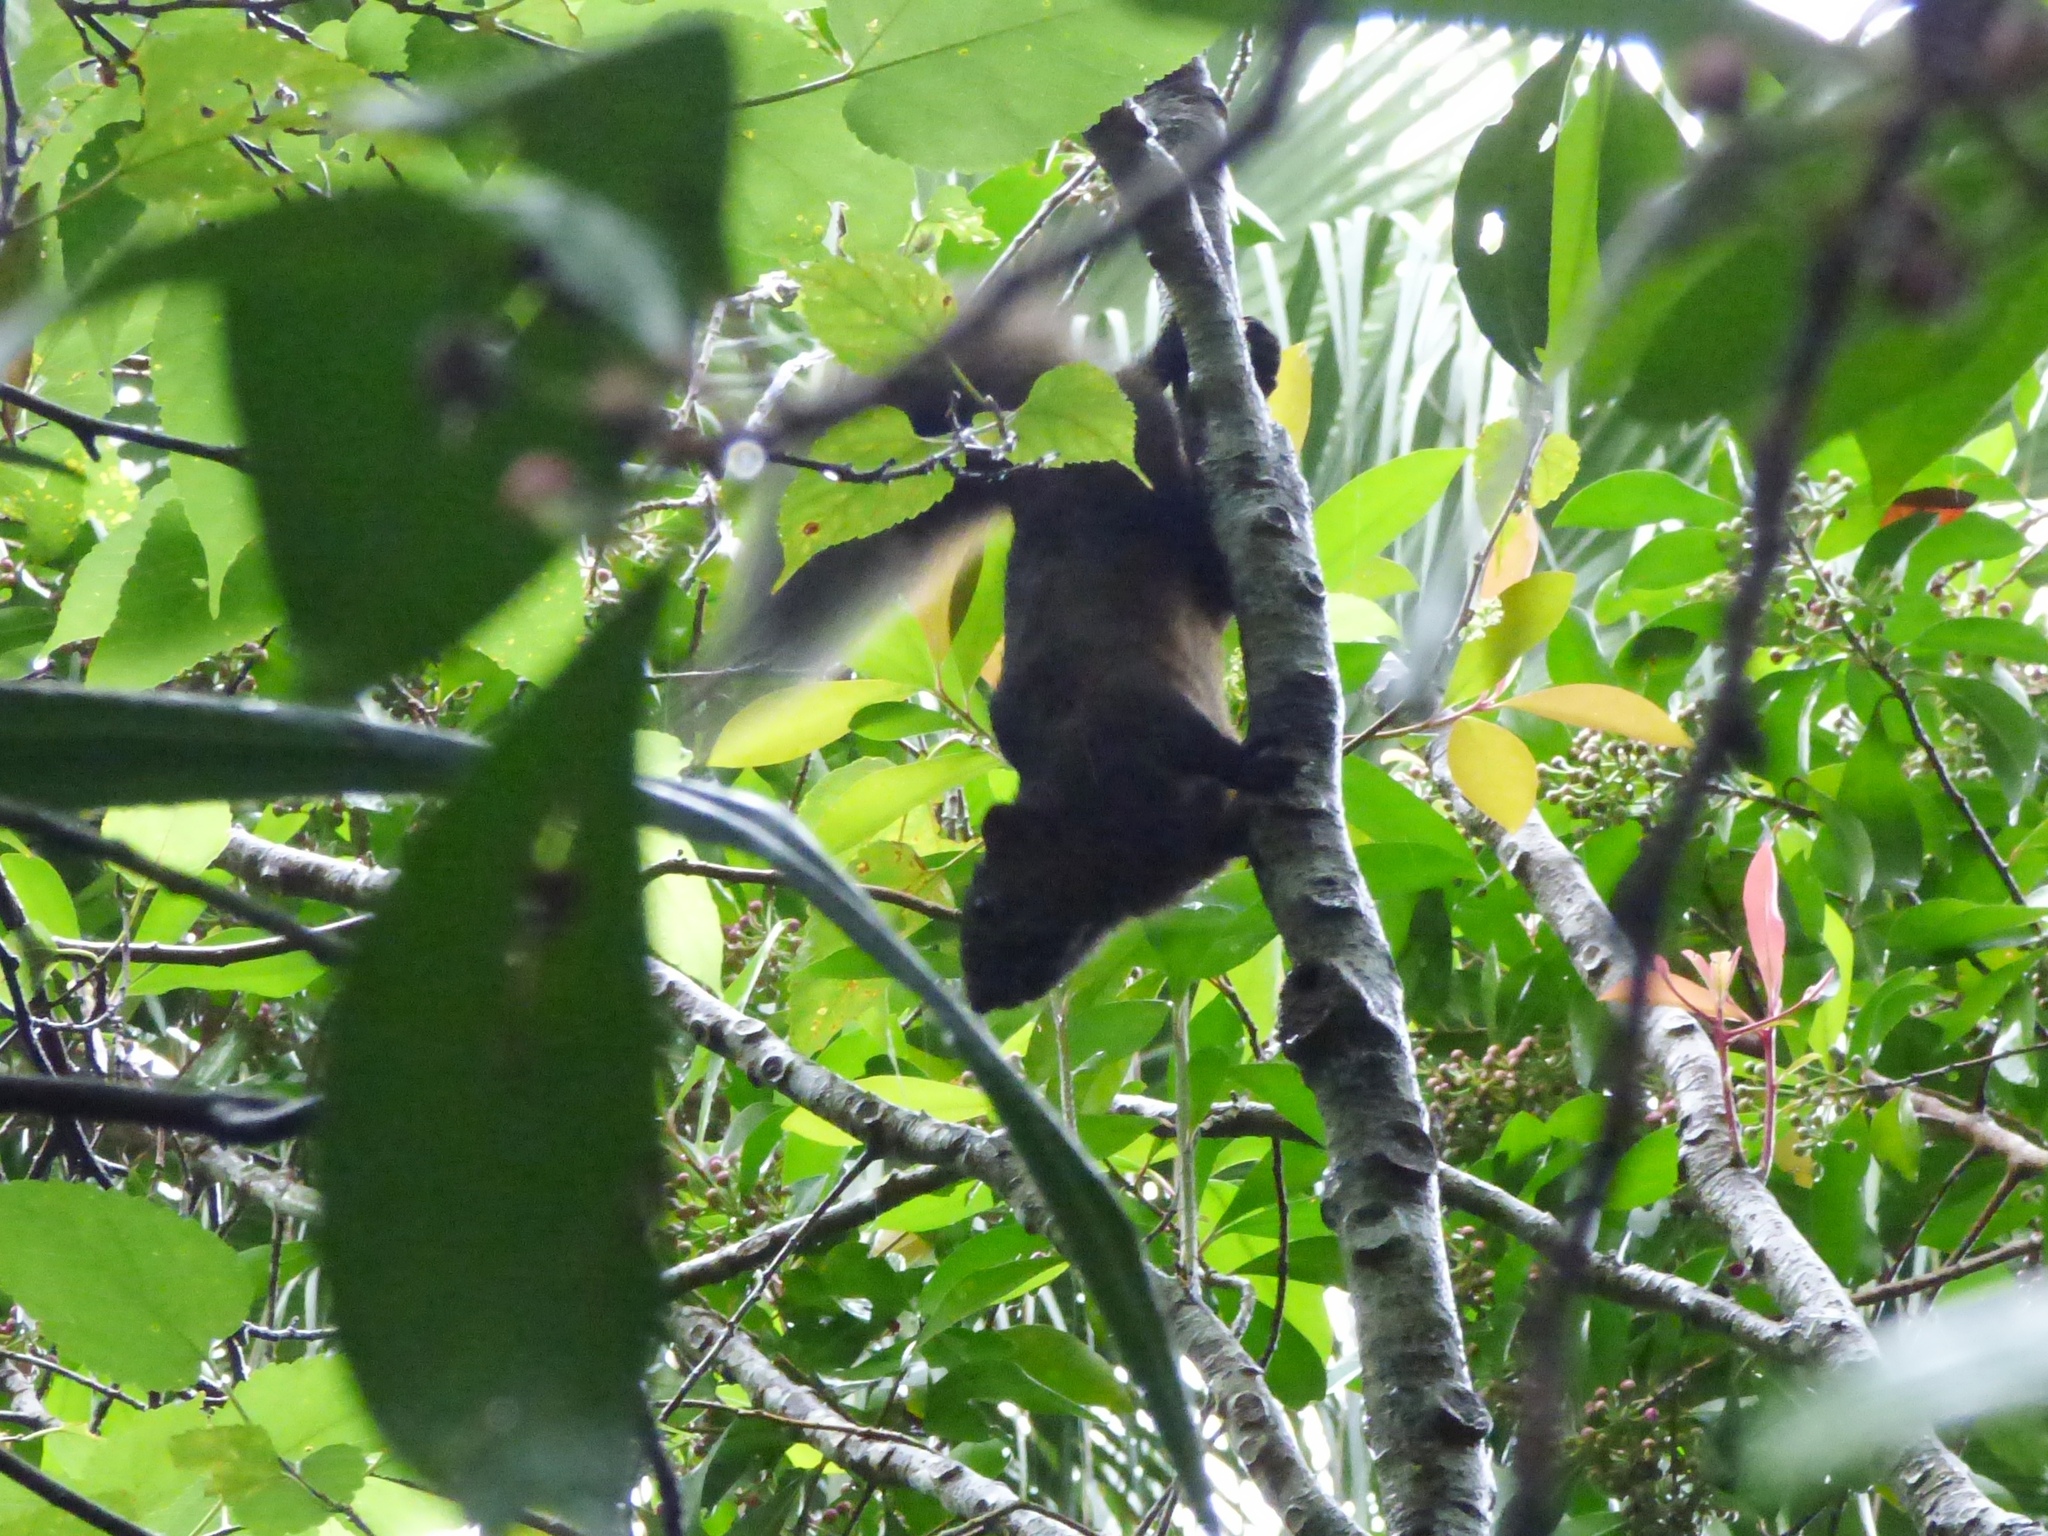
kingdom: Animalia
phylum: Chordata
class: Mammalia
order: Rodentia
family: Sciuridae
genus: Callosciurus
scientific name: Callosciurus erythraeus
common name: Pallas's squirrel
